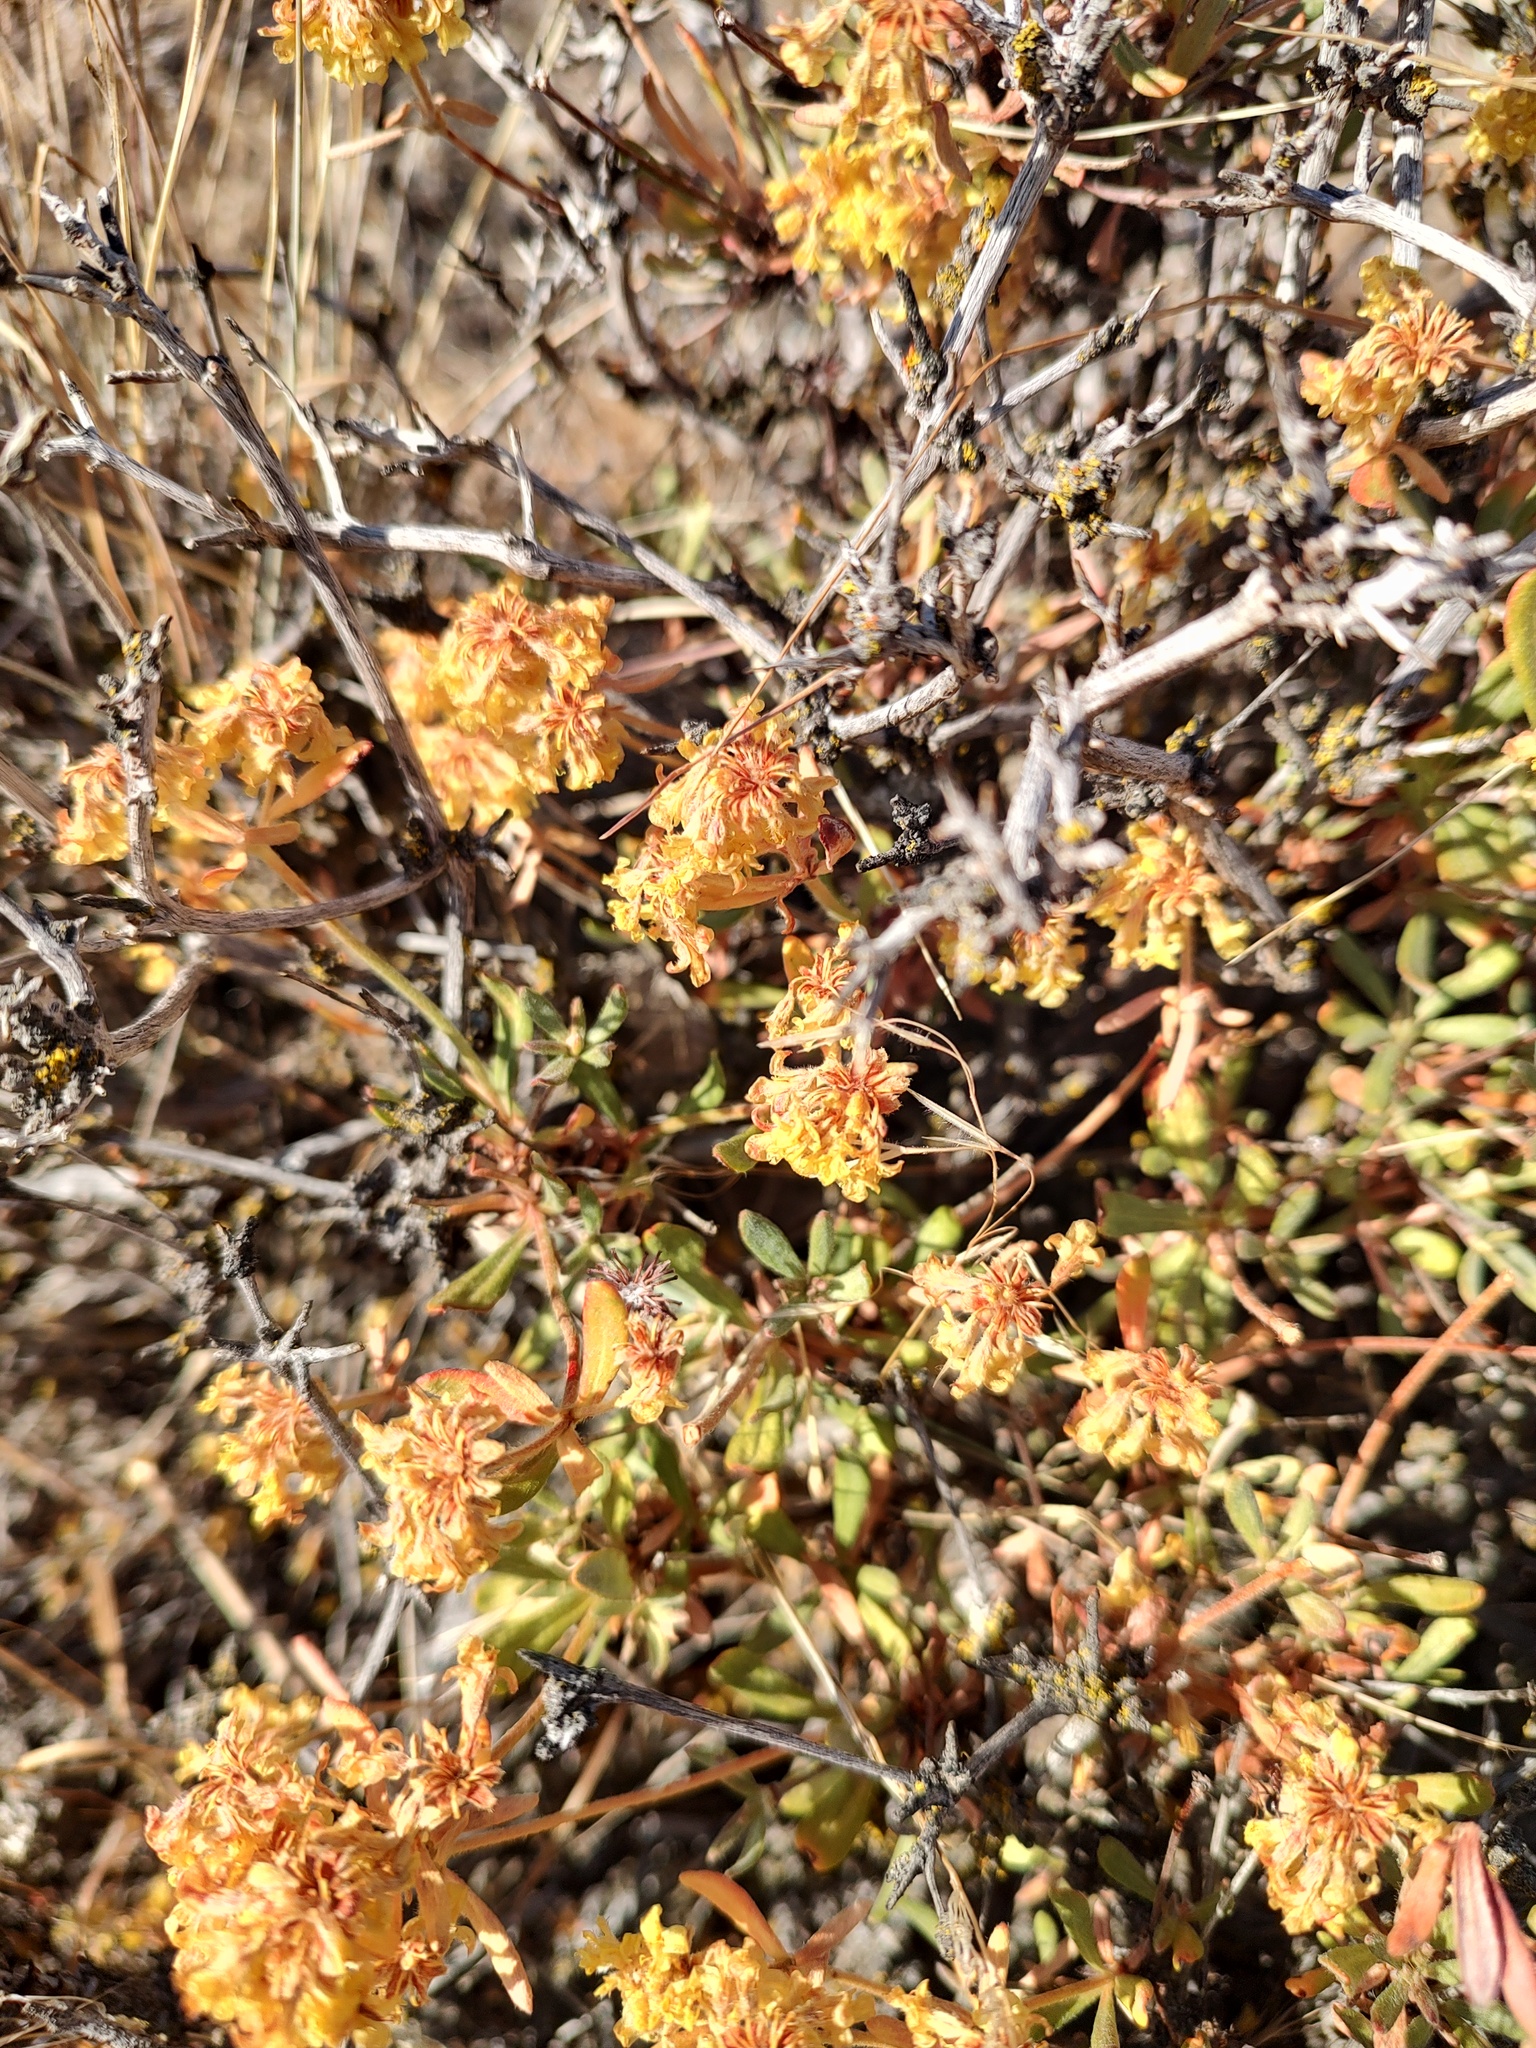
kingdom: Plantae
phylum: Tracheophyta
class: Magnoliopsida
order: Caryophyllales
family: Polygonaceae
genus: Eriogonum
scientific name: Eriogonum sphaerocephalum
